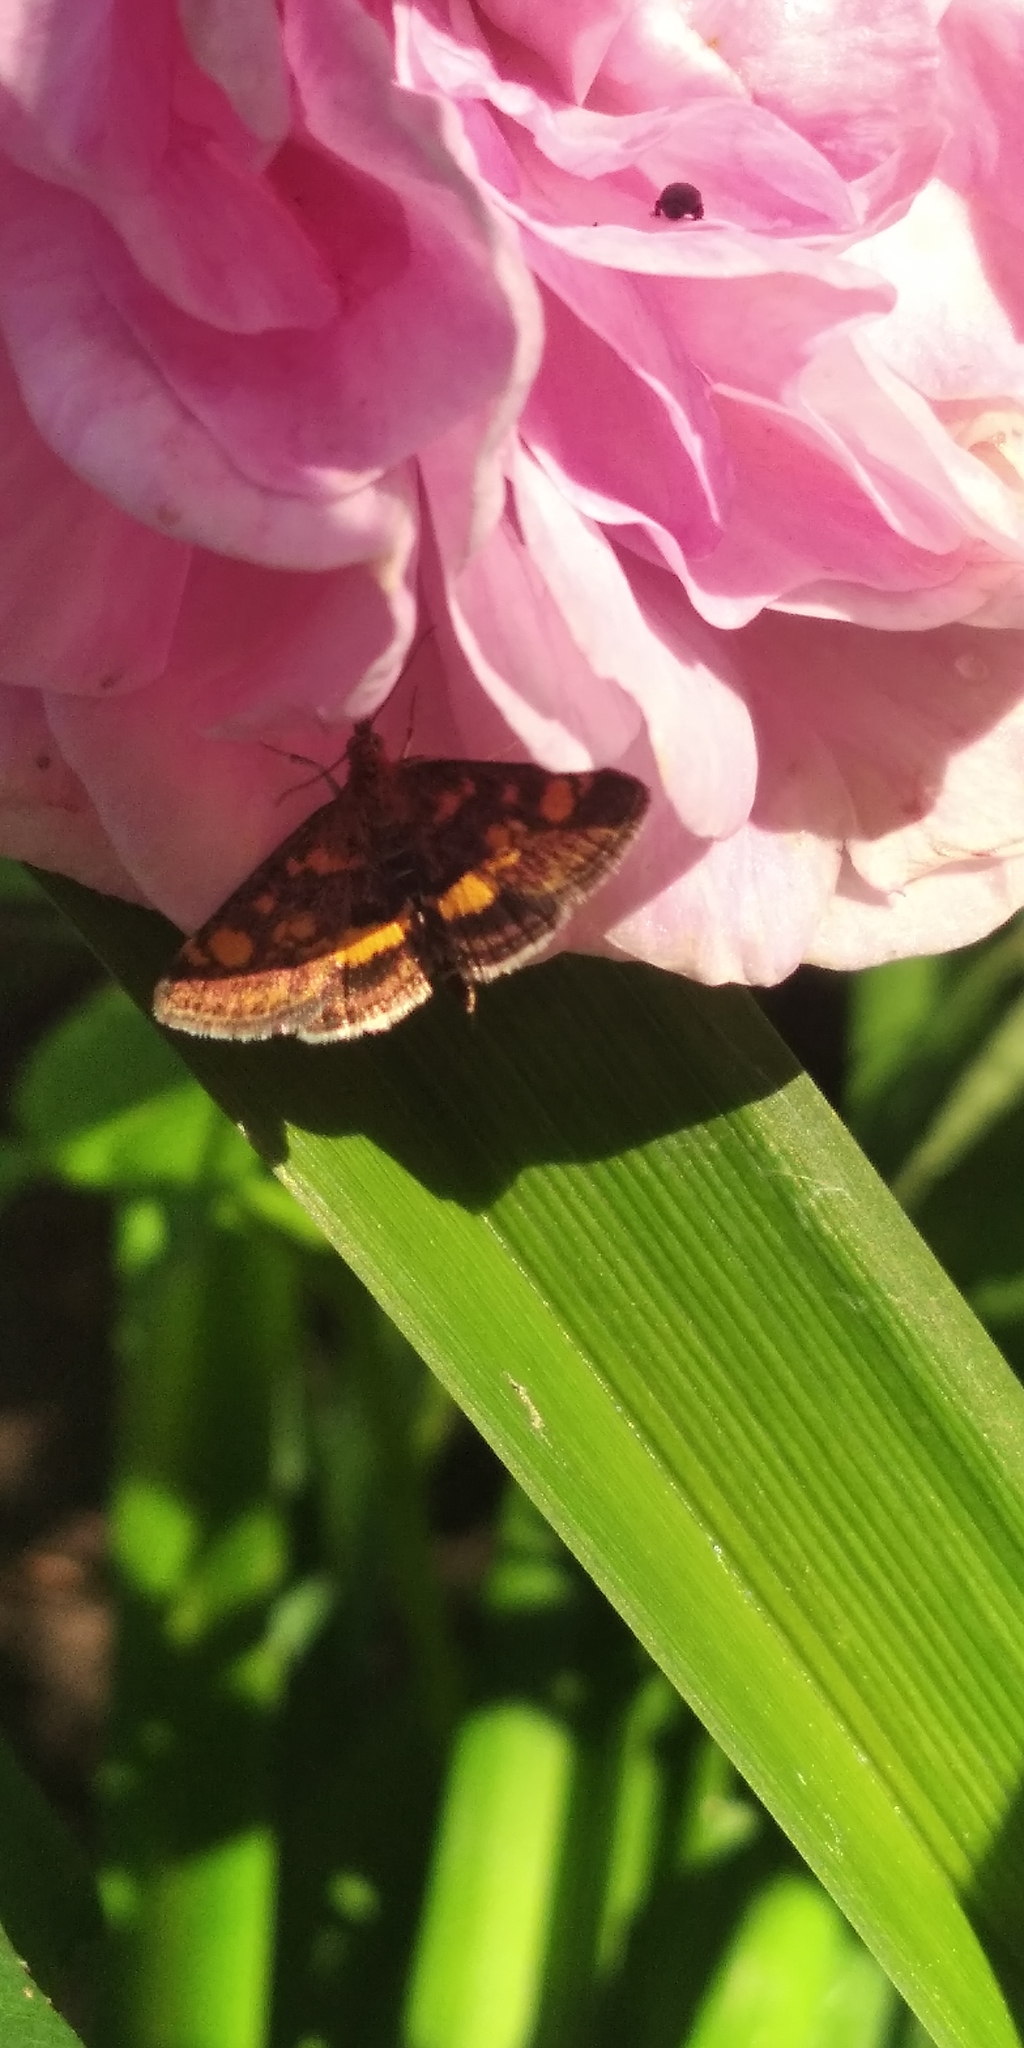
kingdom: Animalia
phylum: Arthropoda
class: Insecta
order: Lepidoptera
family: Crambidae
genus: Pyrausta
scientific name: Pyrausta aurata
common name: Small purple & gold
